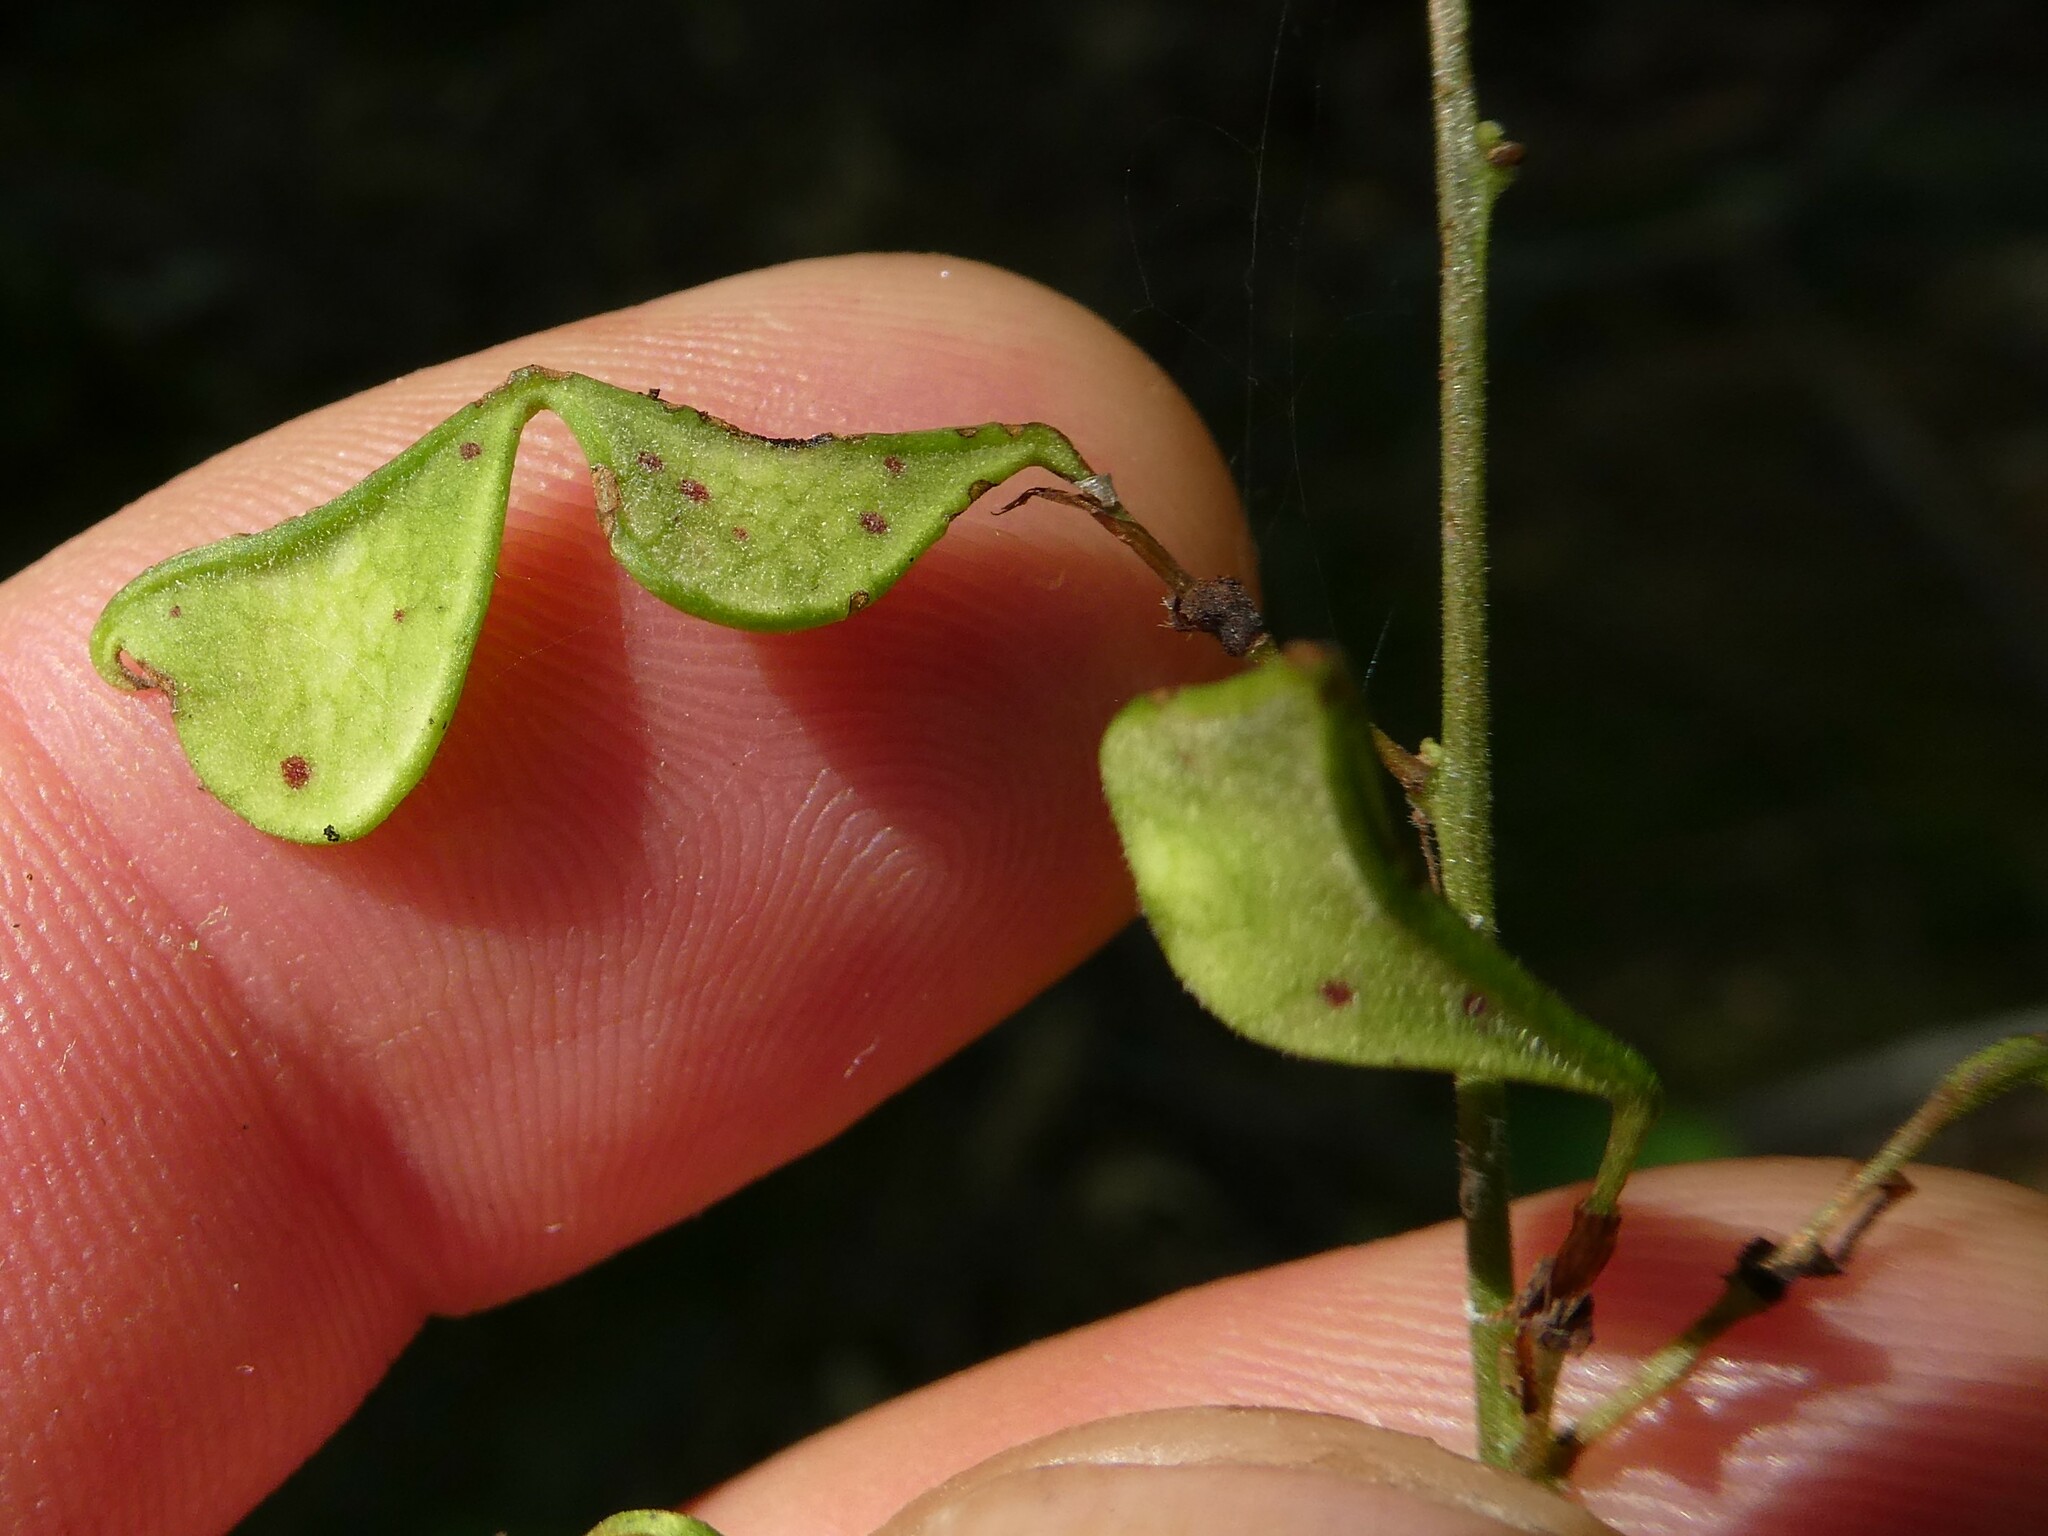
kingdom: Plantae
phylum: Tracheophyta
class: Magnoliopsida
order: Fabales
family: Fabaceae
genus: Hylodesmum
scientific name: Hylodesmum glutinosum
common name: Clustered-leaved tick-trefoil
